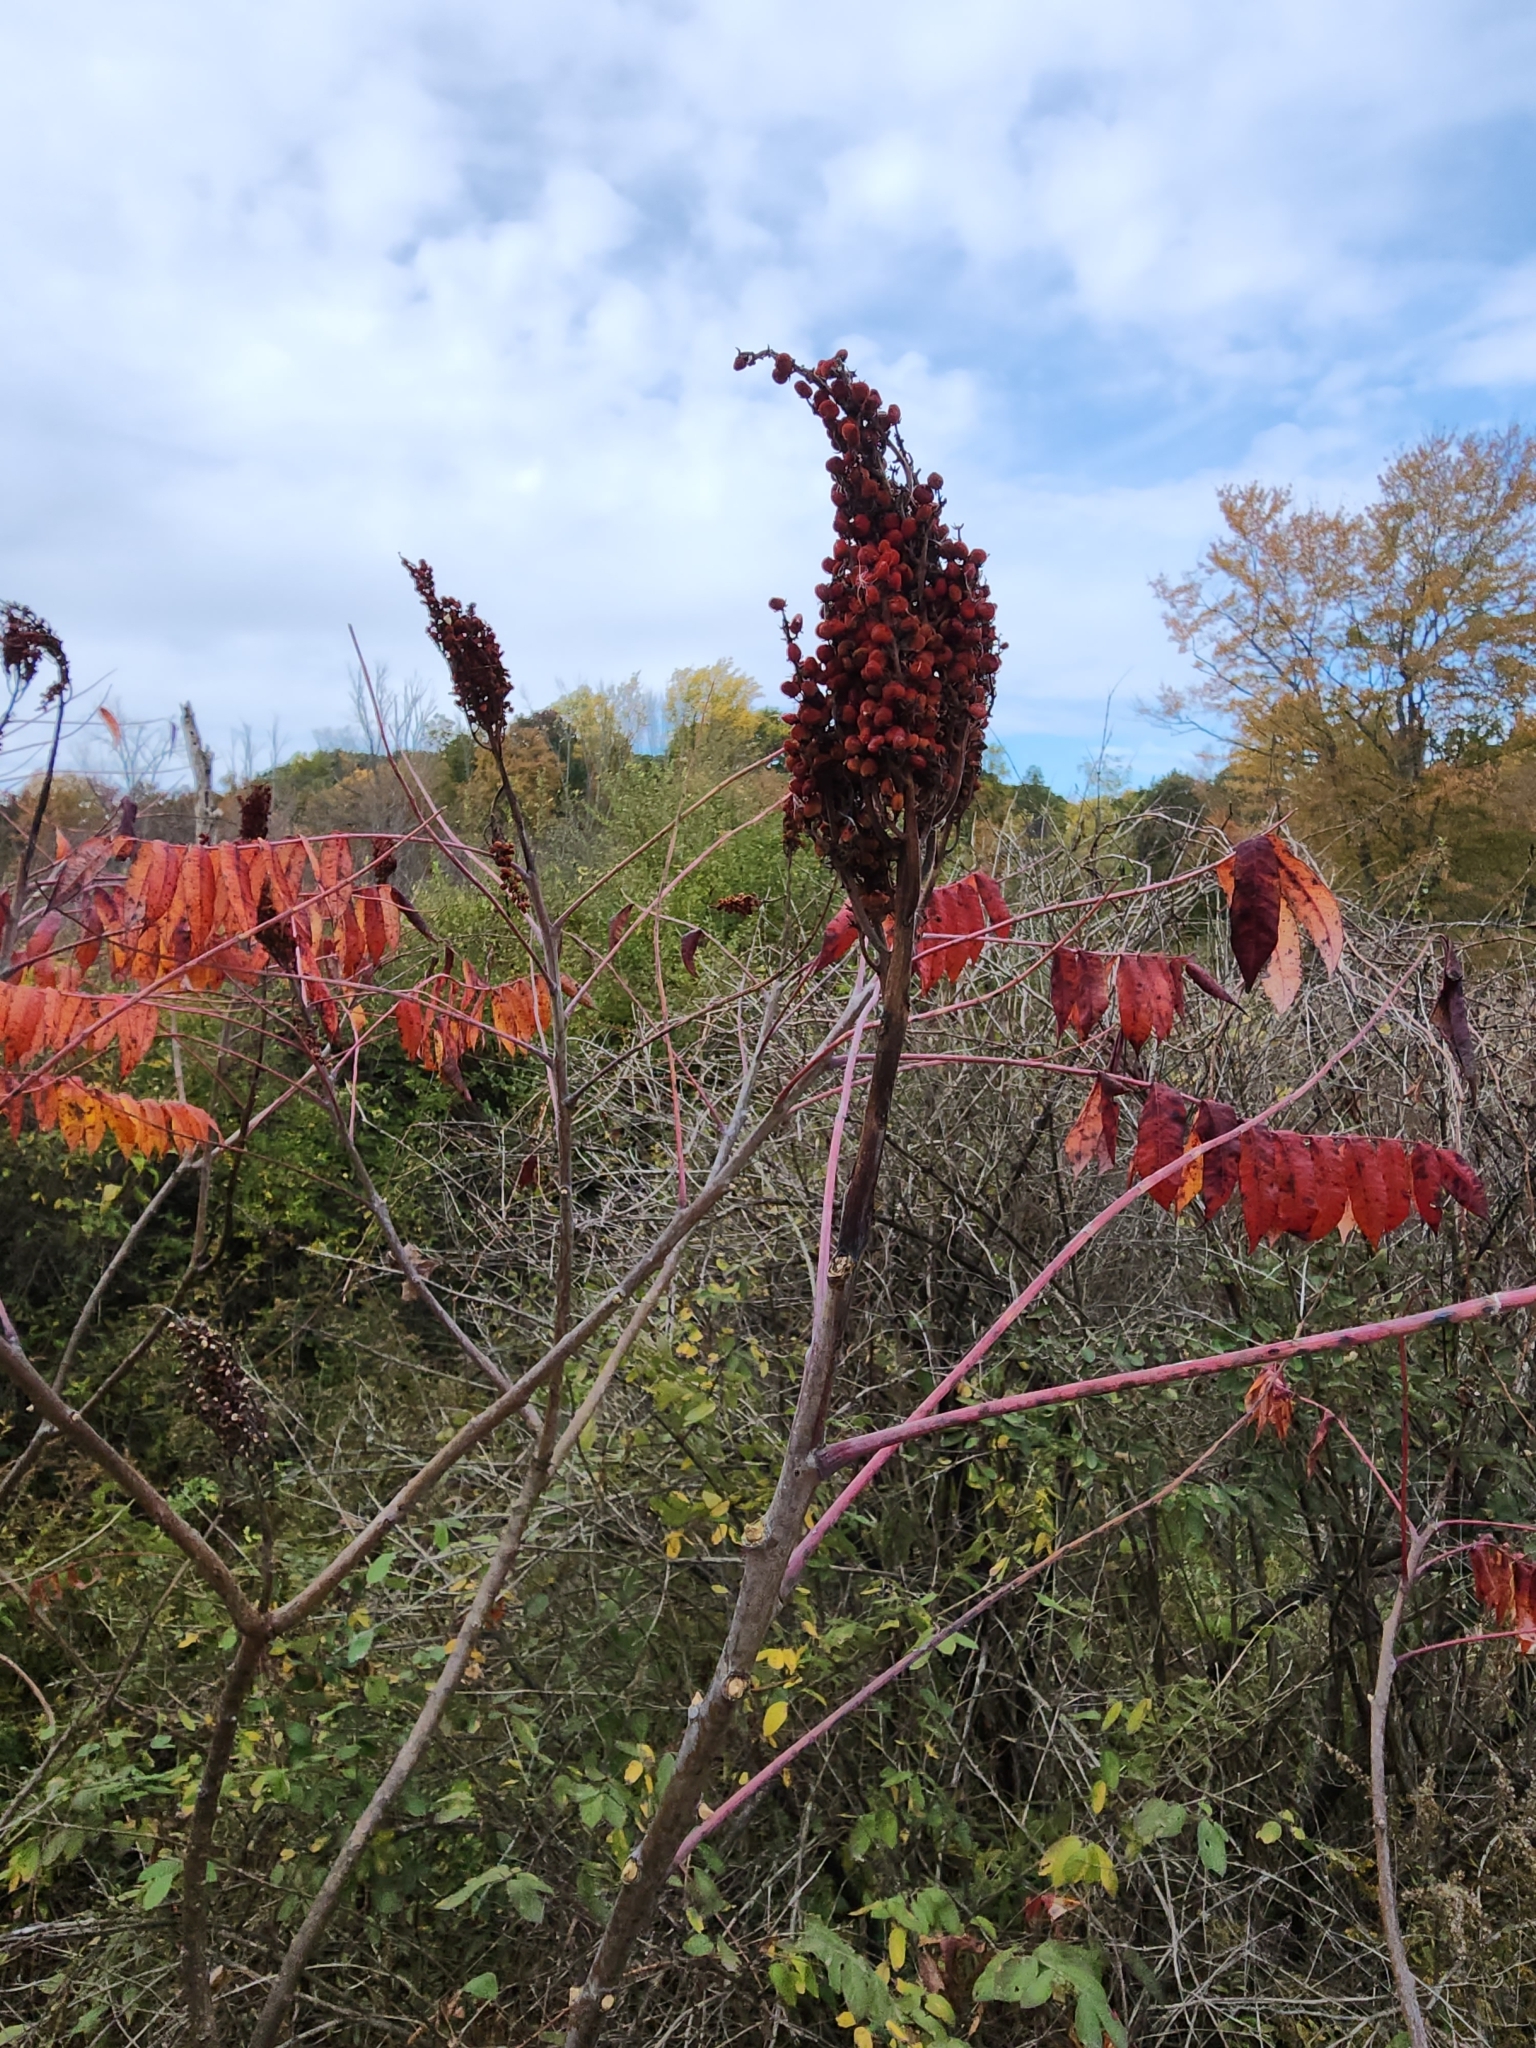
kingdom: Plantae
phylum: Tracheophyta
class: Magnoliopsida
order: Sapindales
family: Anacardiaceae
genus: Rhus
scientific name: Rhus glabra
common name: Scarlet sumac
